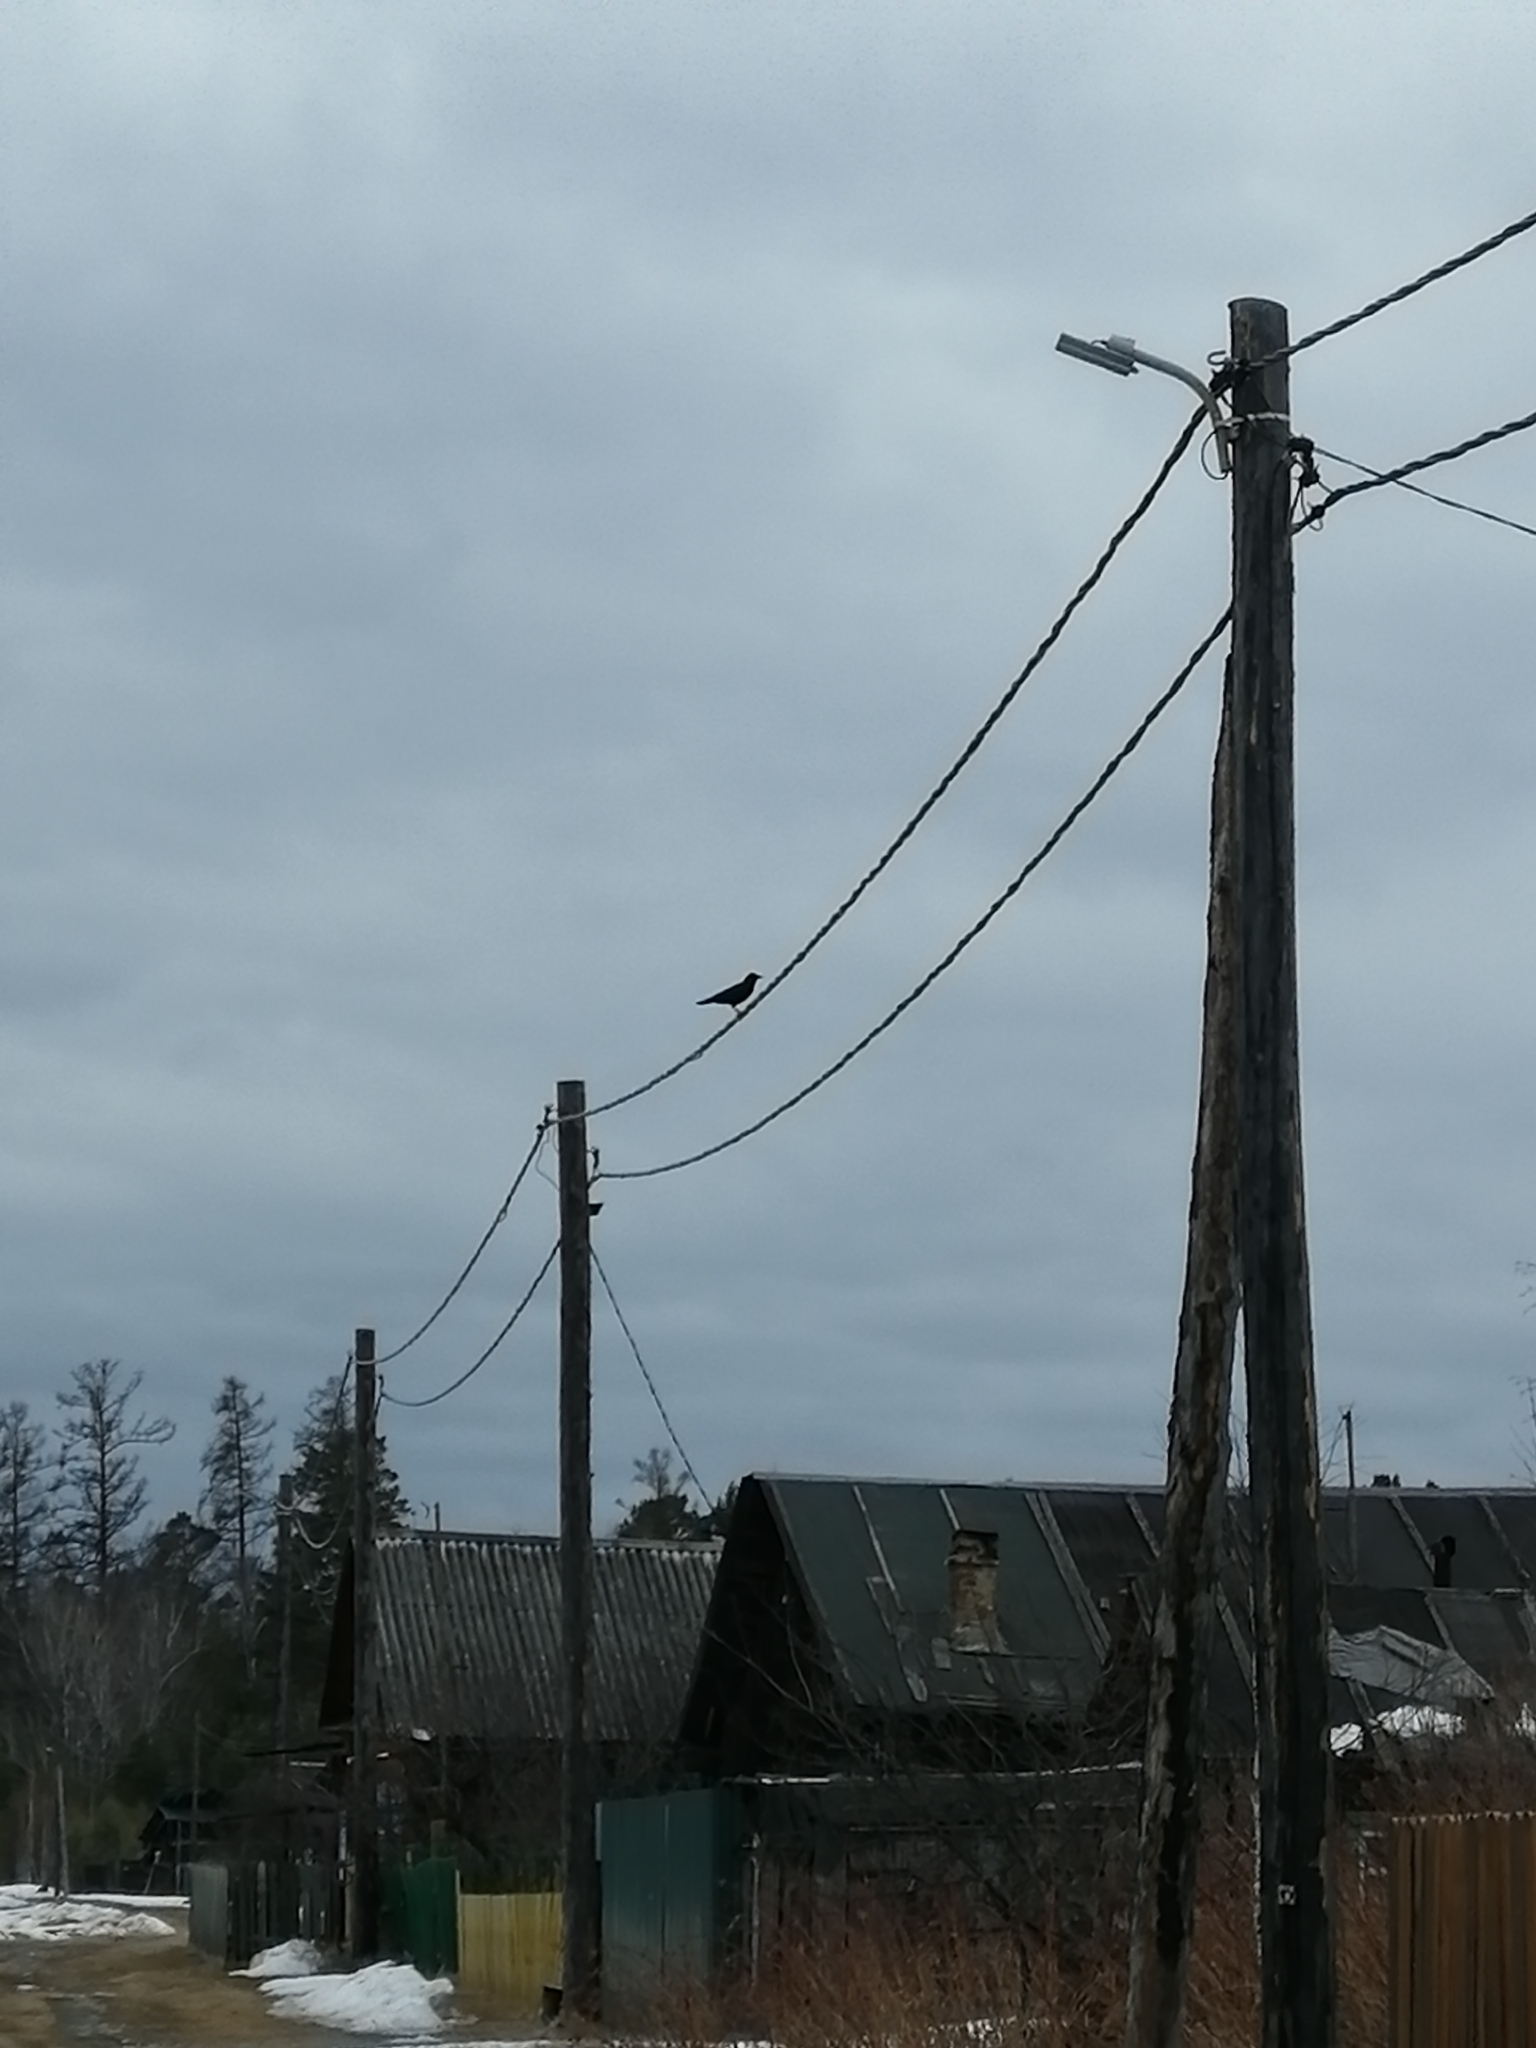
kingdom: Animalia
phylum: Chordata
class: Aves
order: Passeriformes
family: Corvidae
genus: Corvus
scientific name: Corvus corone
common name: Carrion crow
